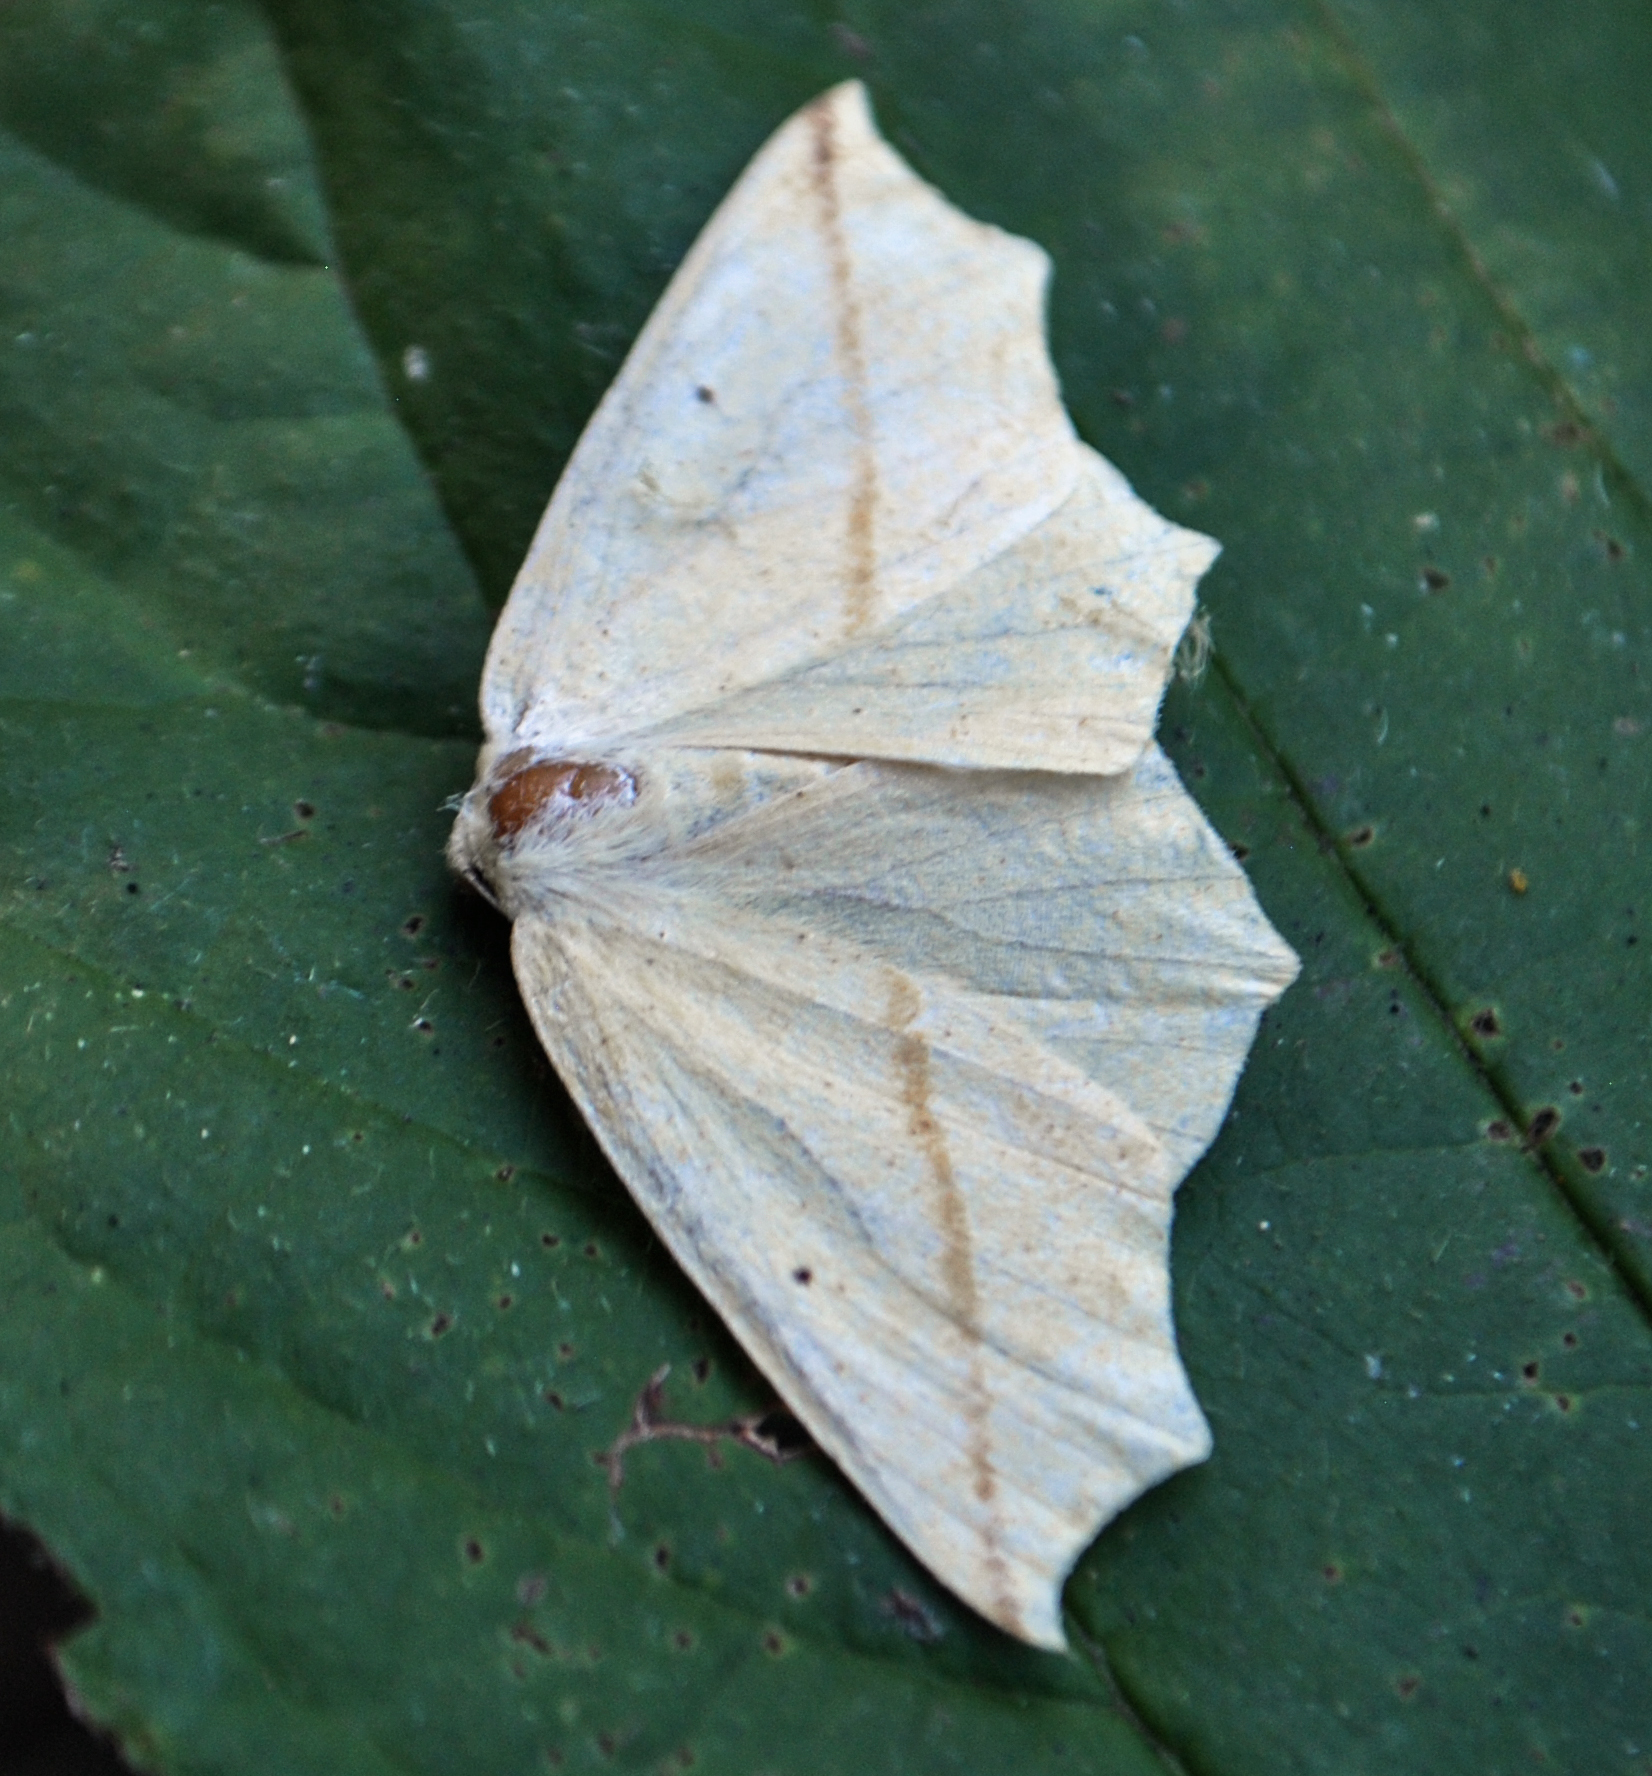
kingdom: Animalia
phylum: Arthropoda
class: Insecta
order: Lepidoptera
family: Geometridae
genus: Tetracis
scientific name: Tetracis crocallata
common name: Yellow slant-line
